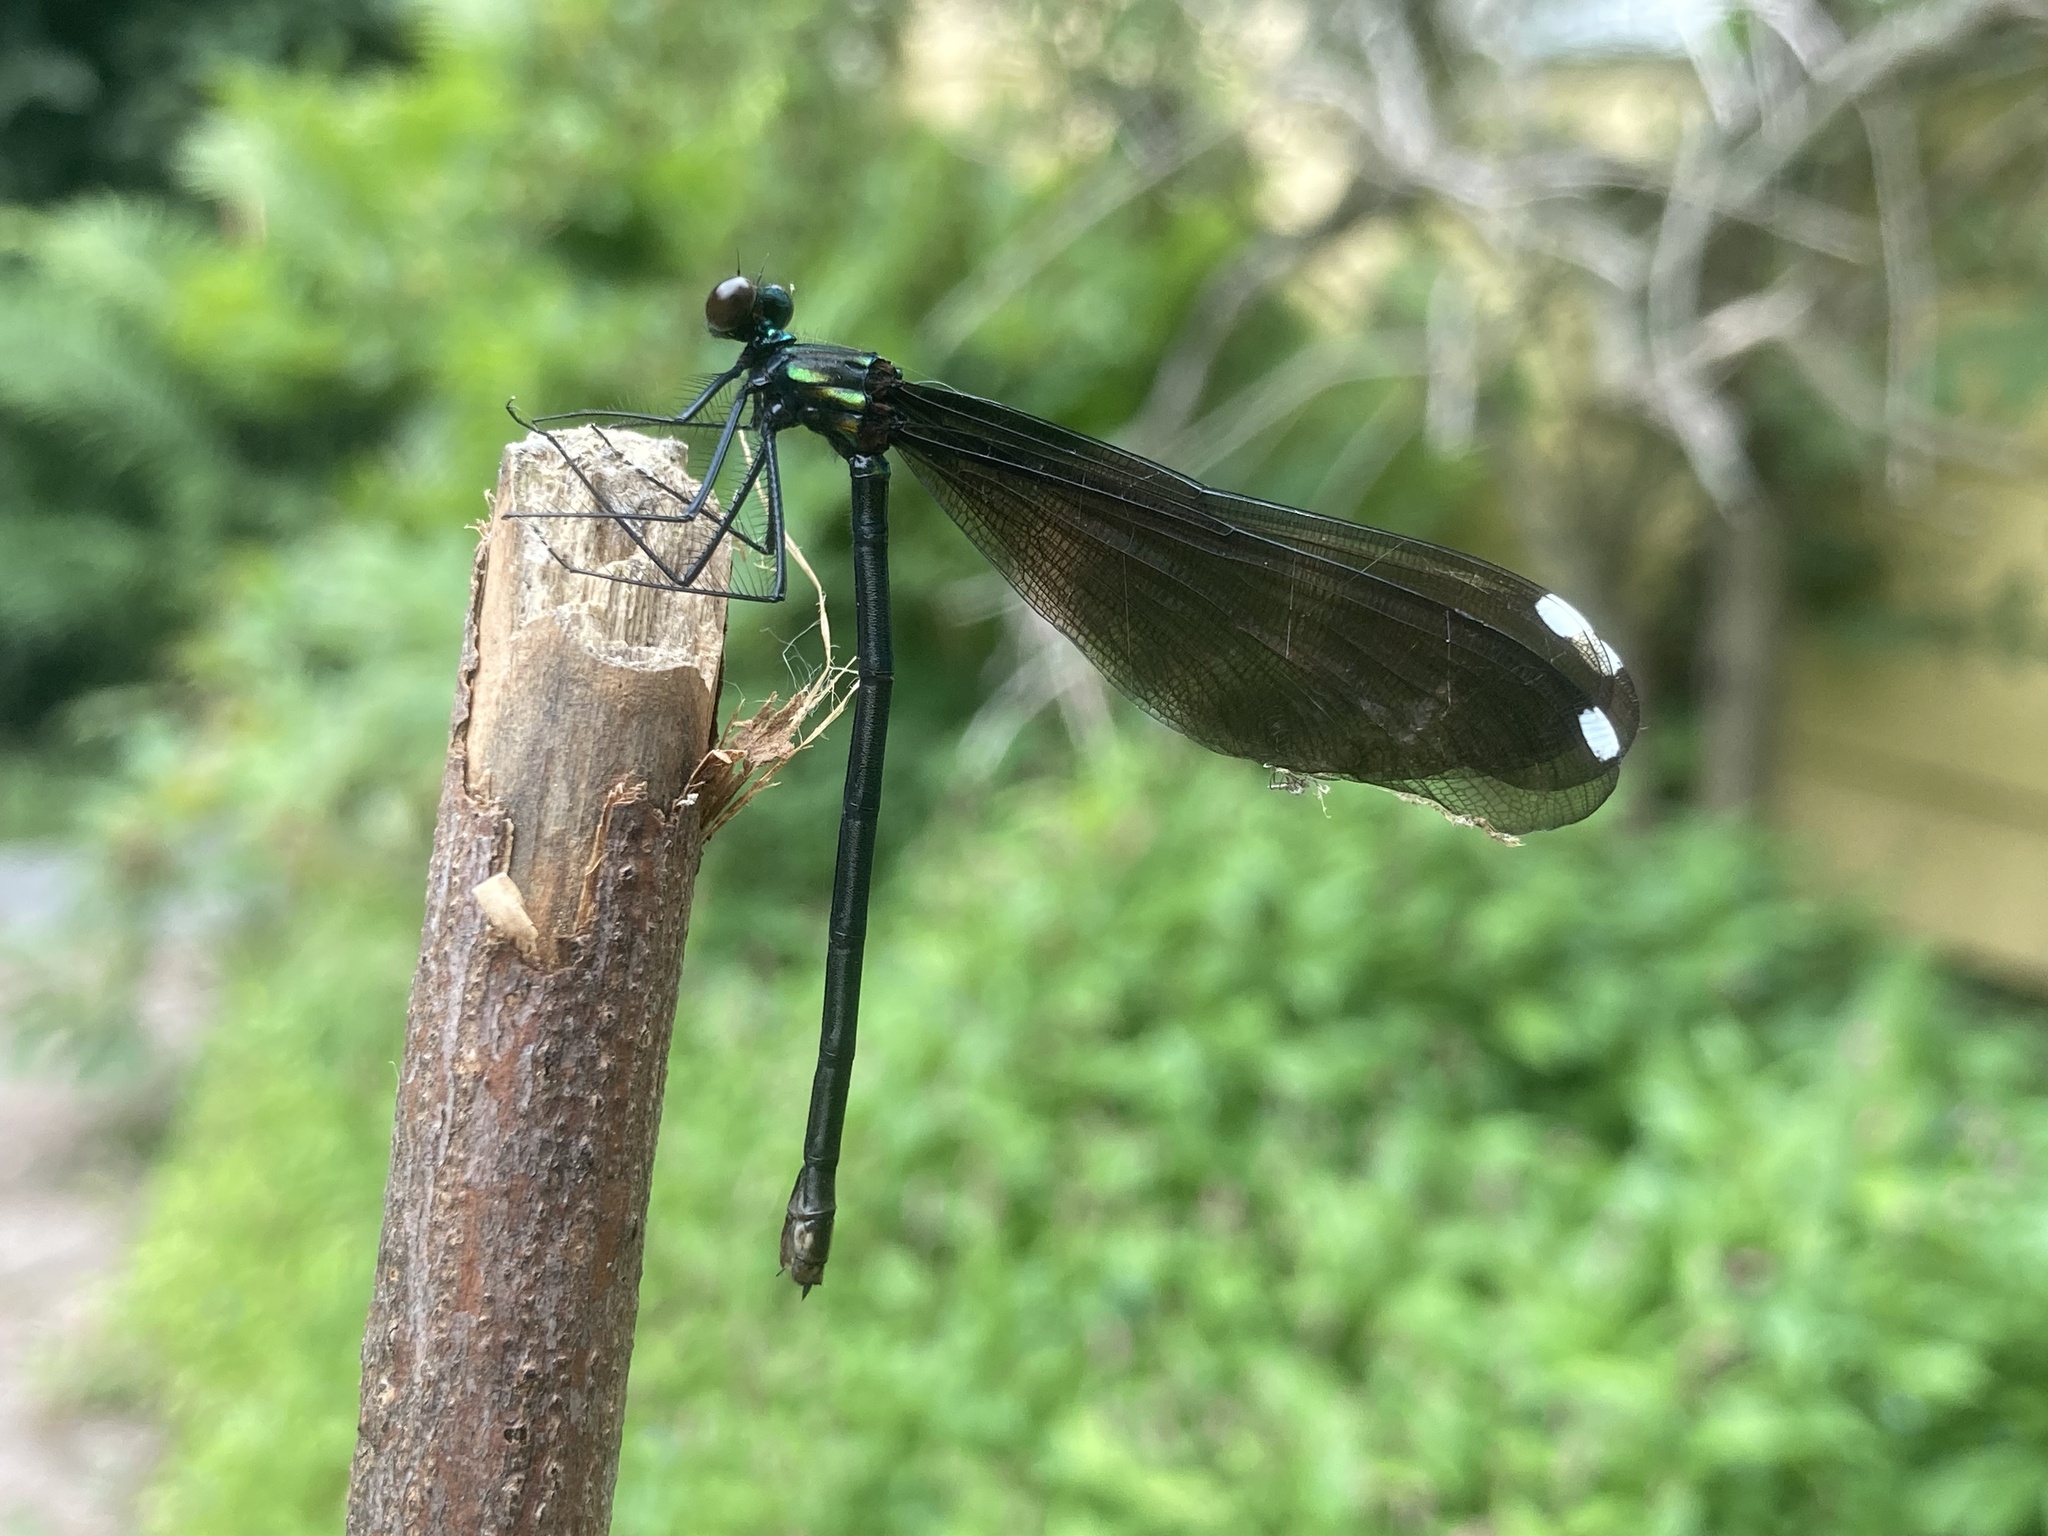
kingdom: Animalia
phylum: Arthropoda
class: Insecta
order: Odonata
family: Calopterygidae
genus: Calopteryx
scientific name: Calopteryx maculata
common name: Ebony jewelwing
